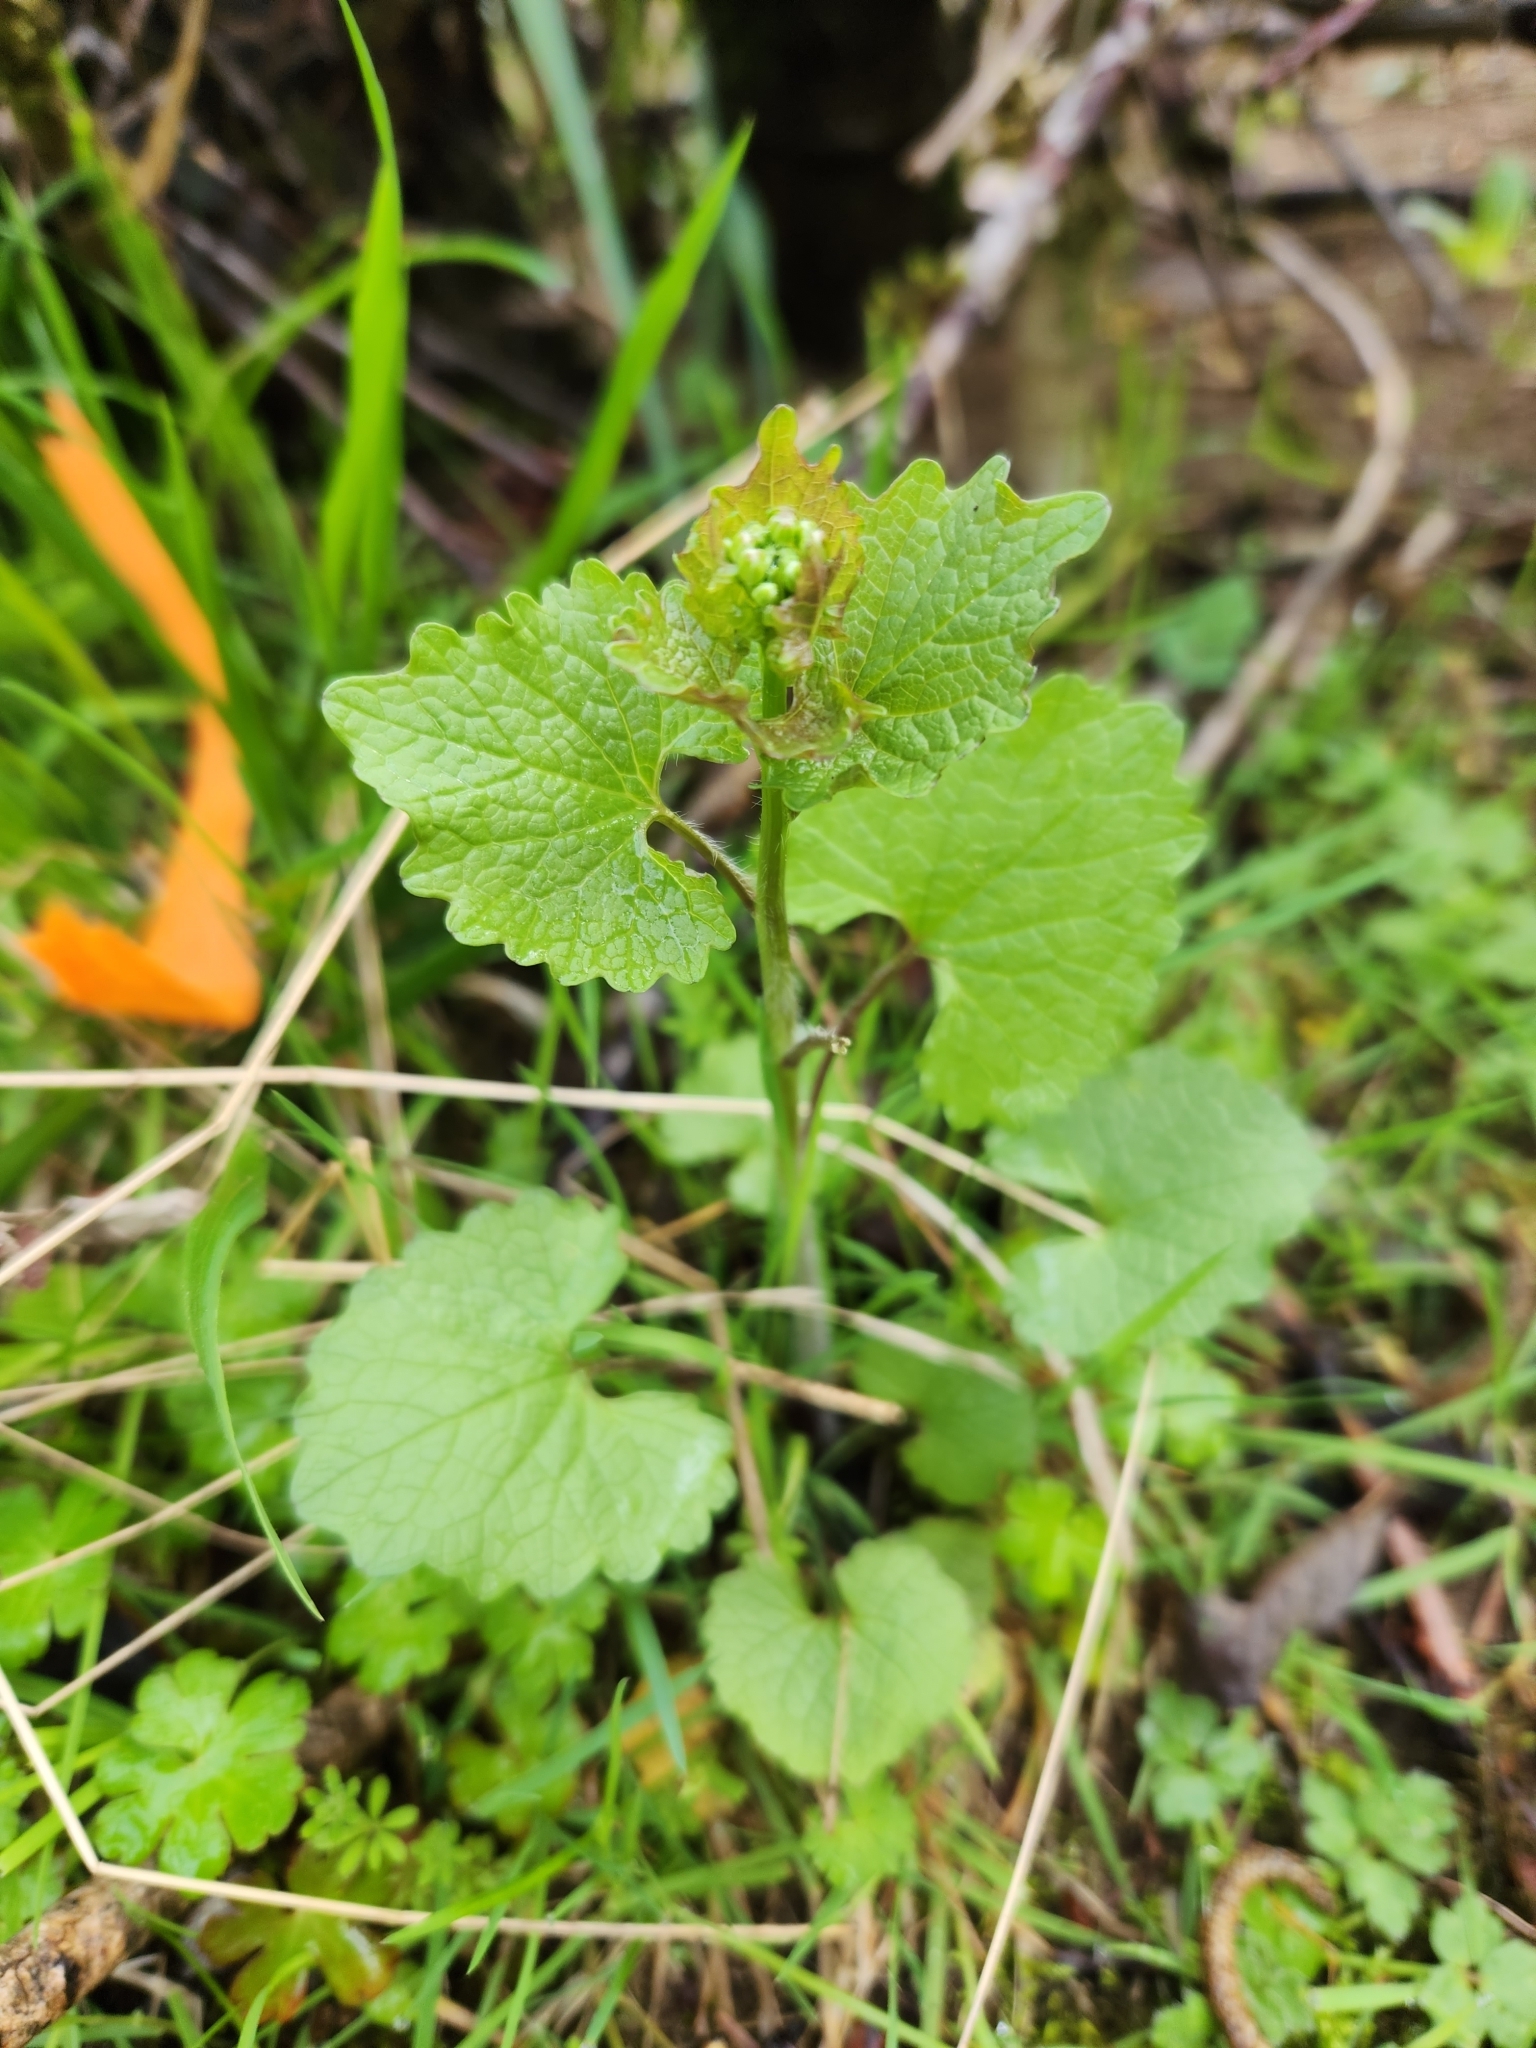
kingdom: Plantae
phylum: Tracheophyta
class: Magnoliopsida
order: Brassicales
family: Brassicaceae
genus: Alliaria
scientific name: Alliaria petiolata
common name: Garlic mustard
